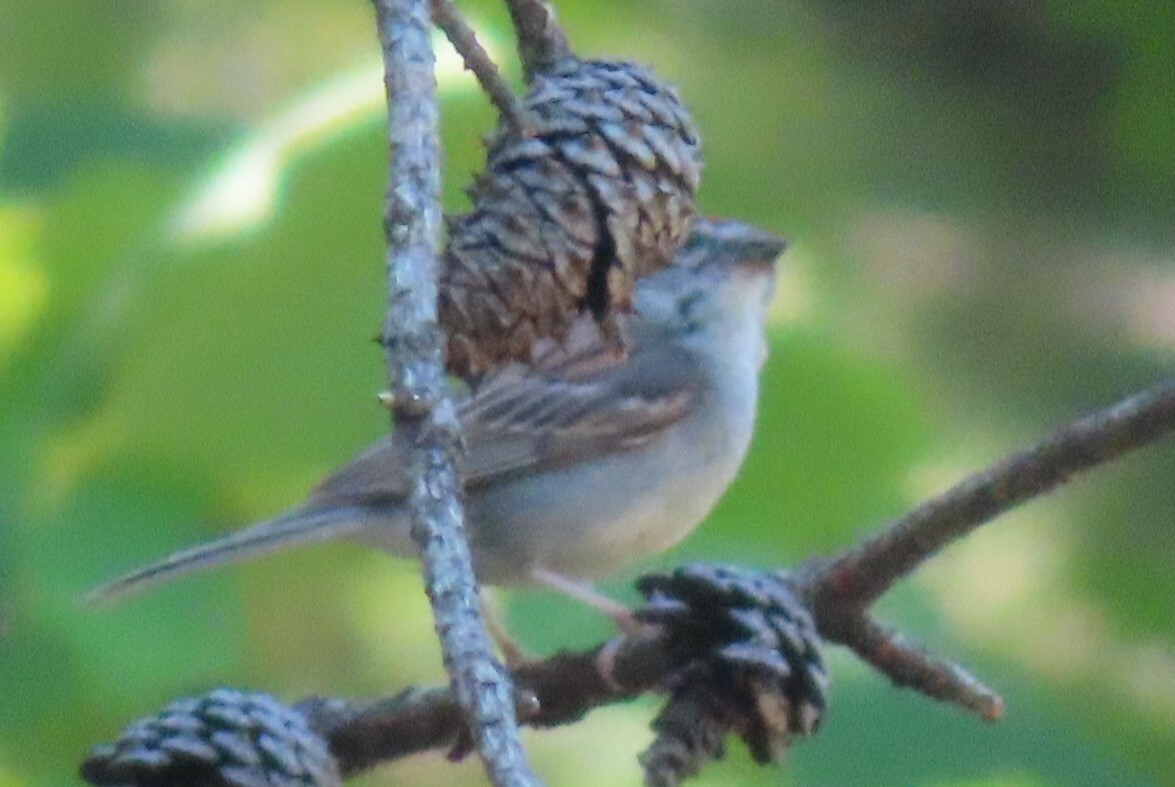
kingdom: Animalia
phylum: Chordata
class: Aves
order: Passeriformes
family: Passerellidae
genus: Spizella
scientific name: Spizella passerina
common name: Chipping sparrow
